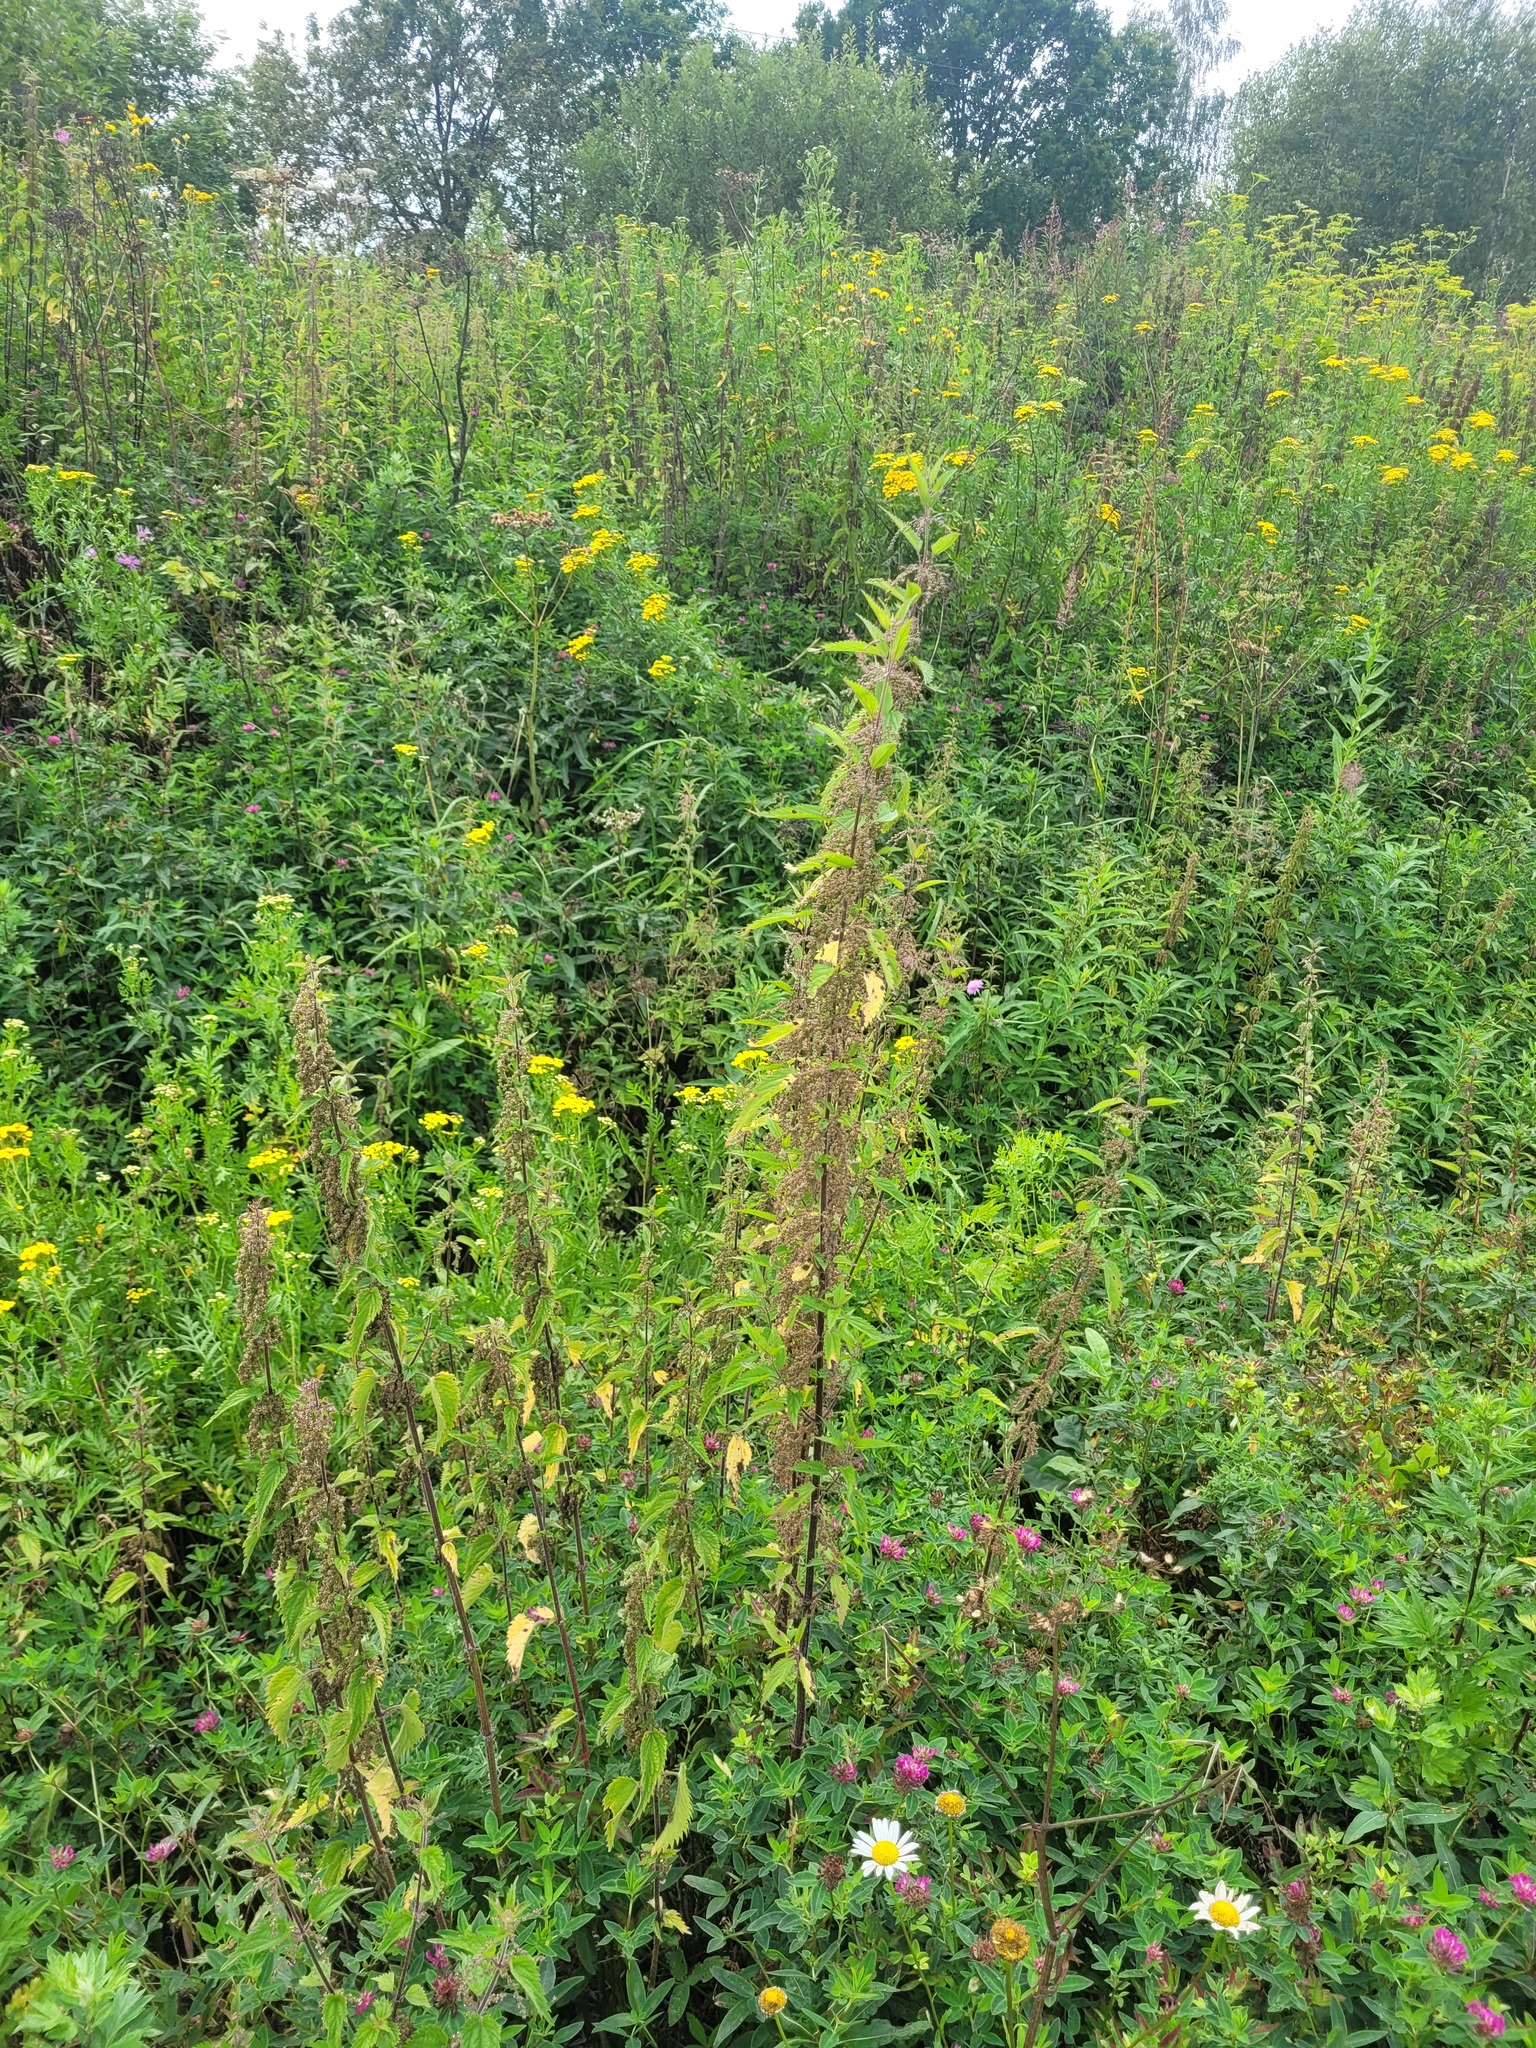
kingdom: Plantae
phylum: Tracheophyta
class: Magnoliopsida
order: Rosales
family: Urticaceae
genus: Urtica
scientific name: Urtica dioica
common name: Common nettle
